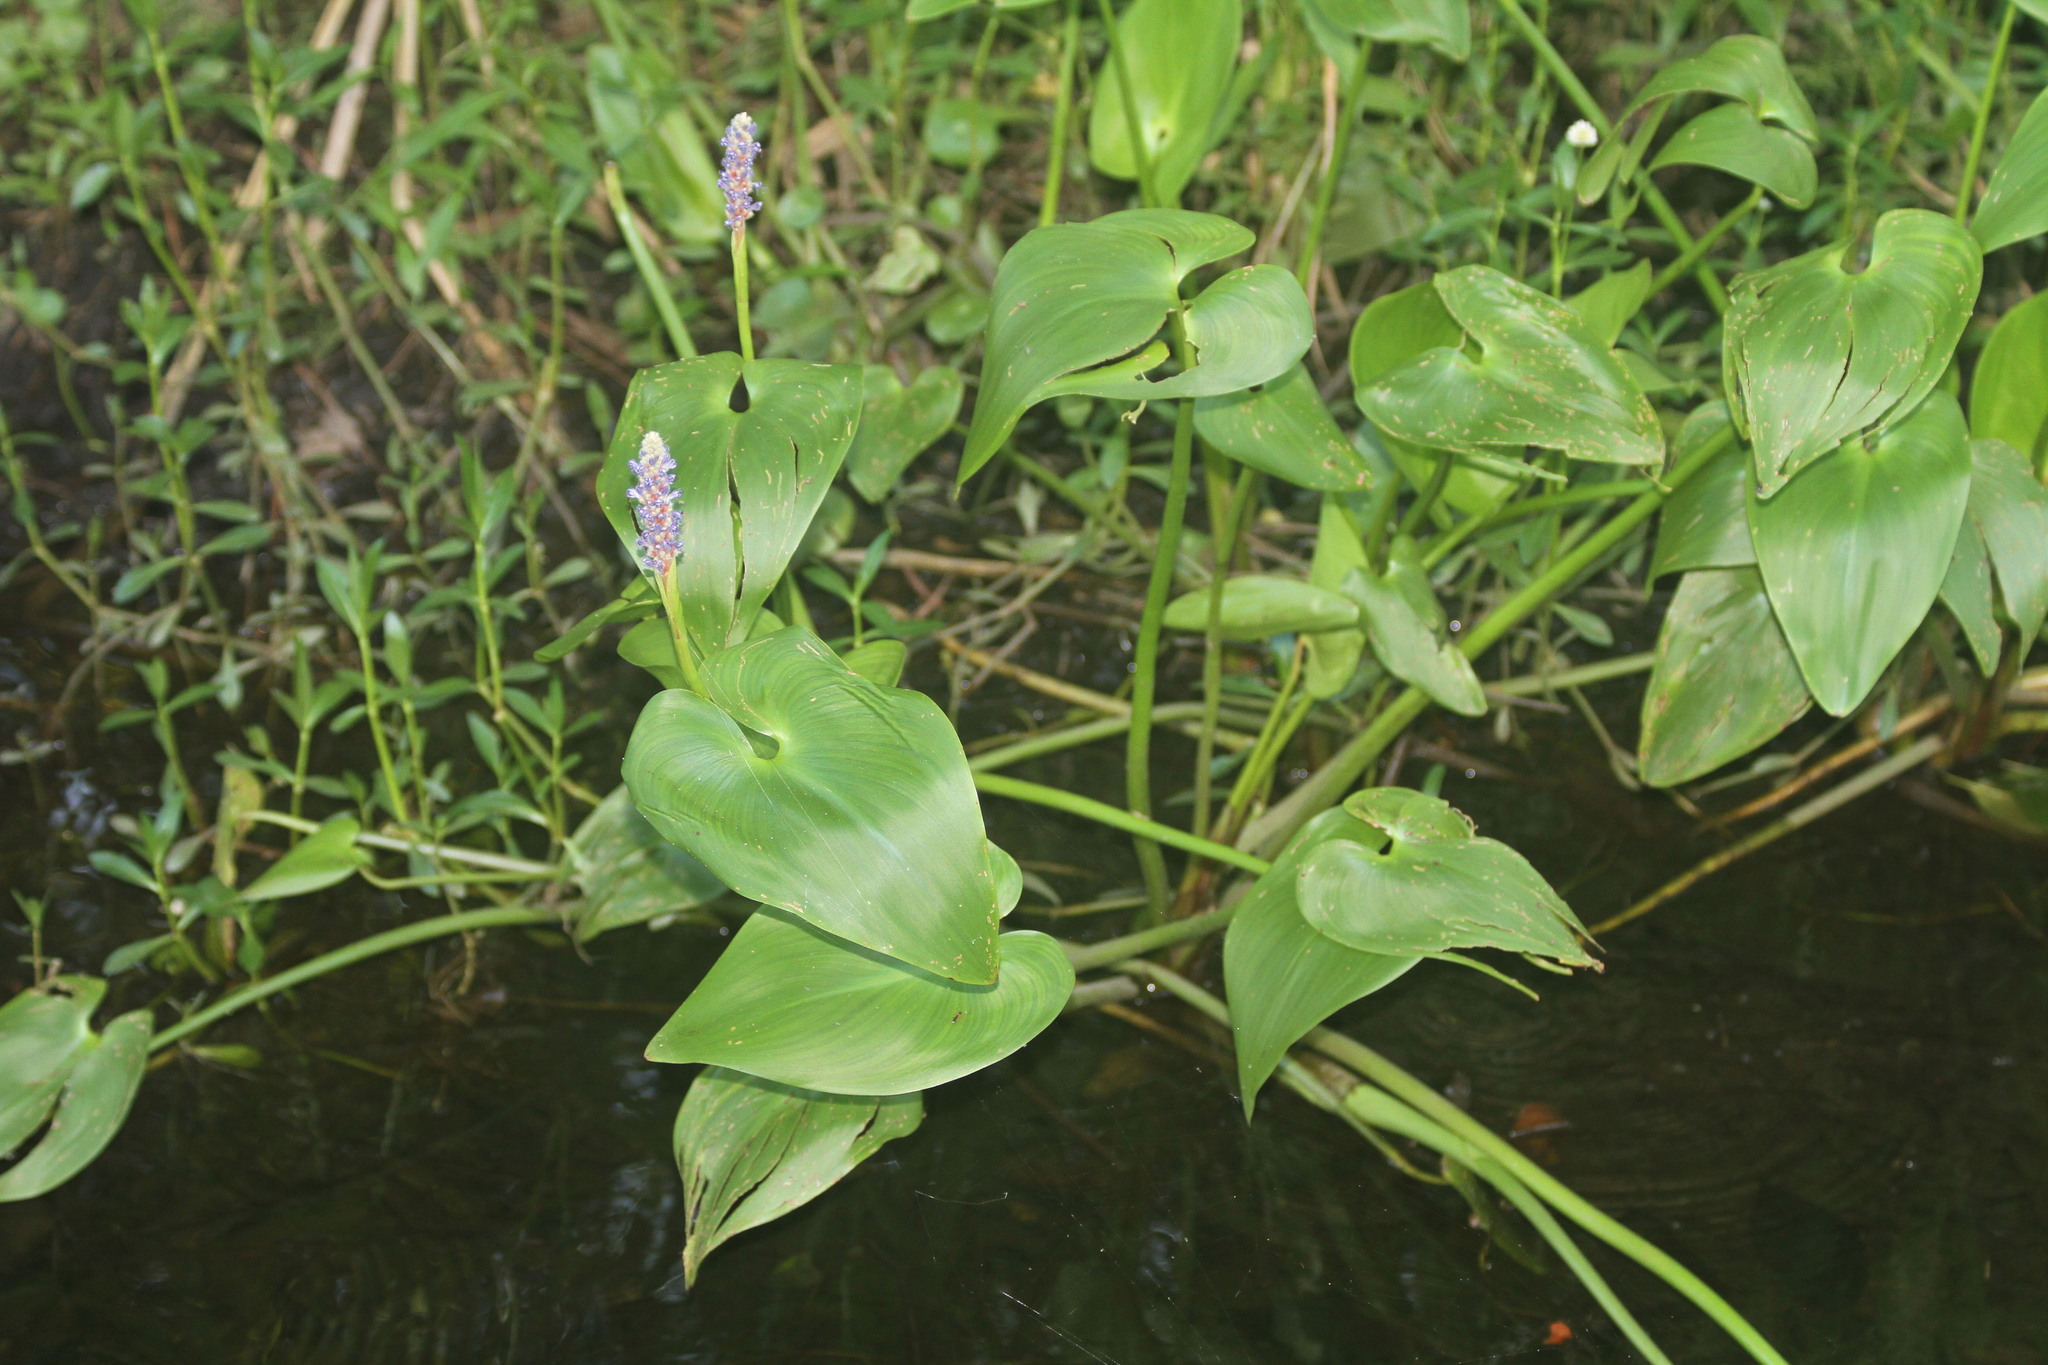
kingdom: Plantae
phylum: Tracheophyta
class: Liliopsida
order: Commelinales
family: Pontederiaceae
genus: Pontederia
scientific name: Pontederia cordata
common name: Pickerelweed
